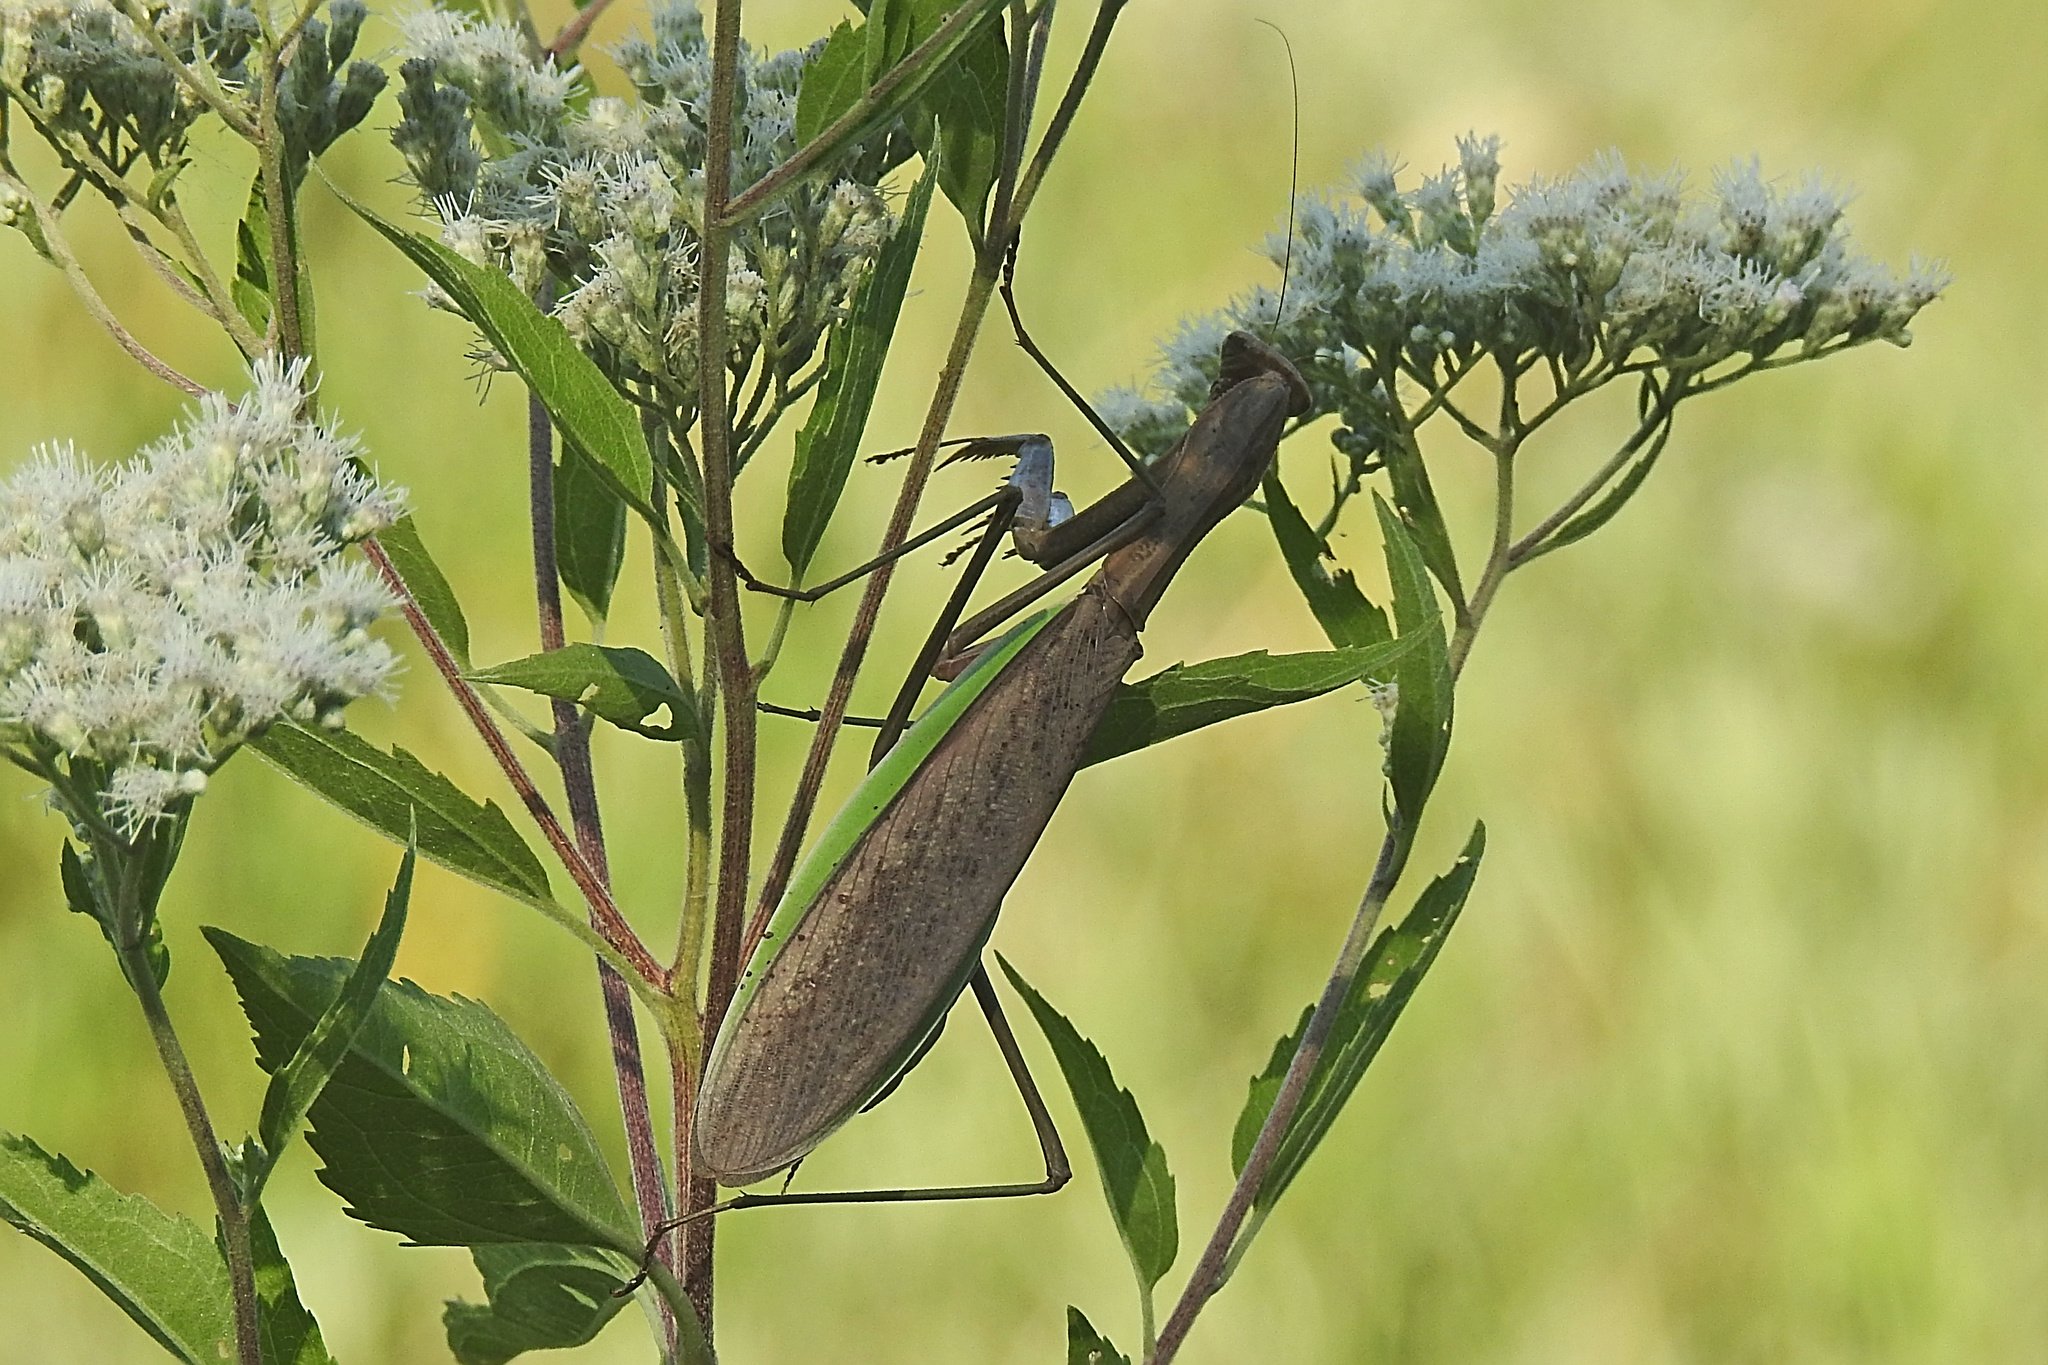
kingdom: Animalia
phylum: Arthropoda
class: Insecta
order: Mantodea
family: Mantidae
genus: Tenodera
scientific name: Tenodera sinensis
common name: Chinese mantis
